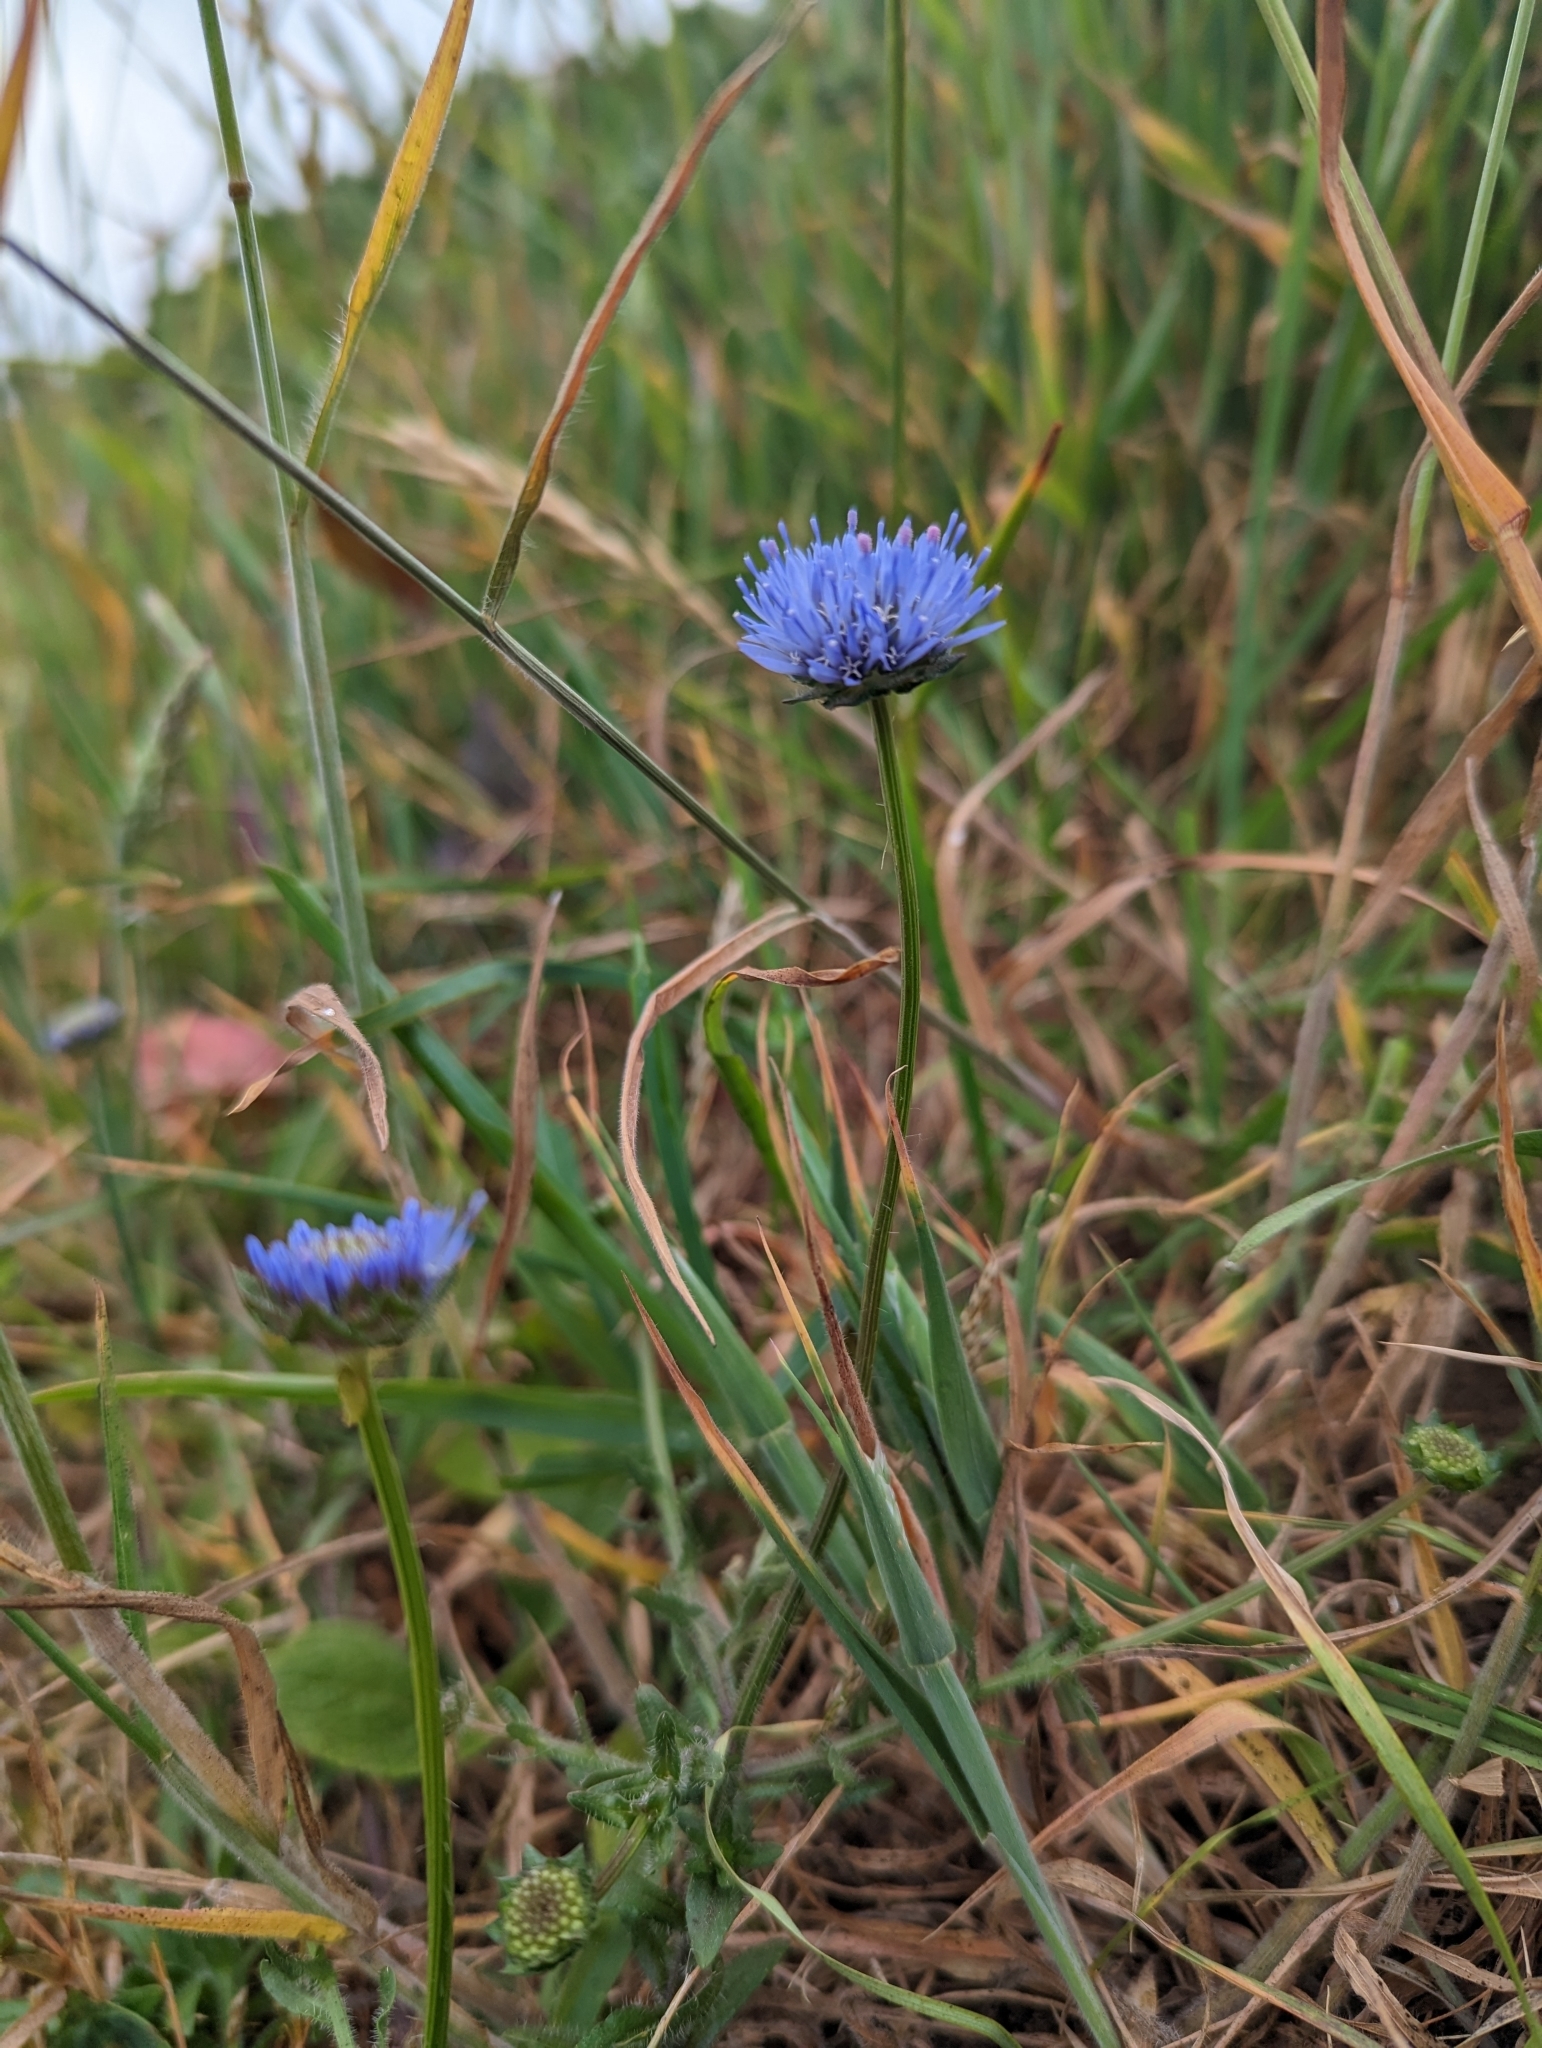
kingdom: Plantae
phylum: Tracheophyta
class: Magnoliopsida
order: Asterales
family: Campanulaceae
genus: Jasione
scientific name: Jasione montana
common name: Sheep's-bit
